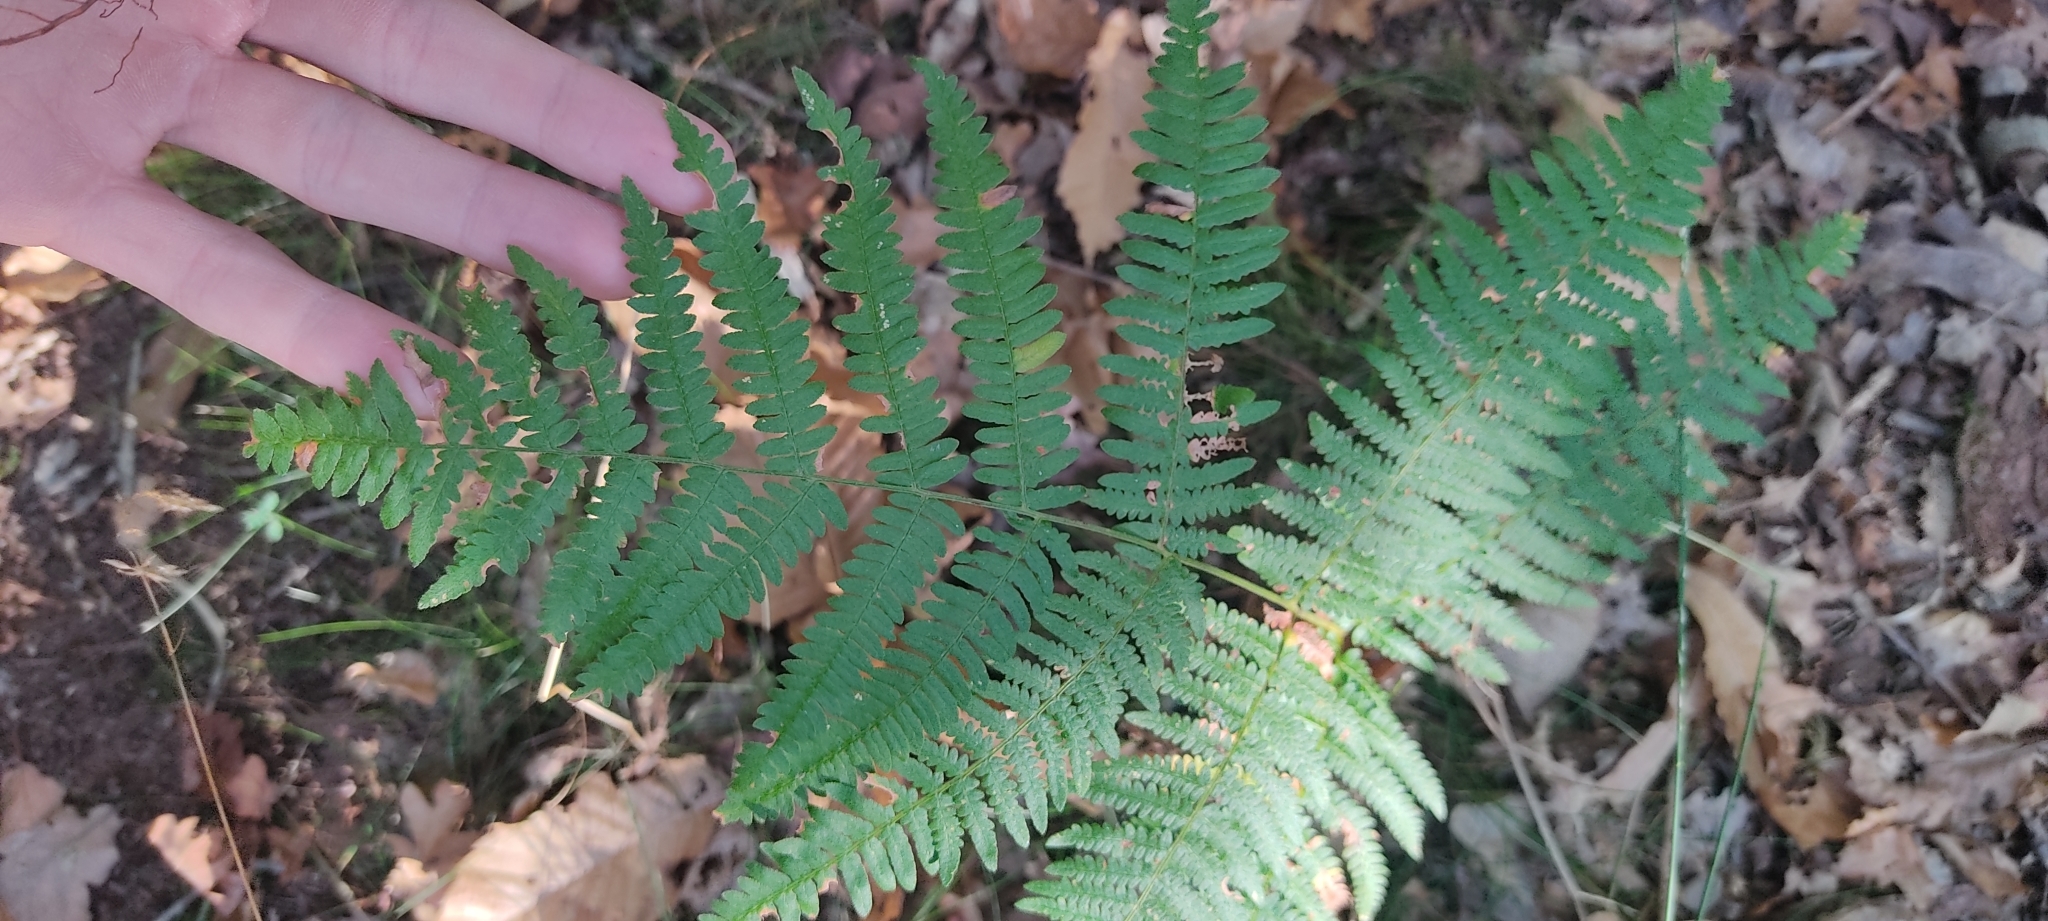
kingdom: Plantae
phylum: Tracheophyta
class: Polypodiopsida
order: Polypodiales
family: Dennstaedtiaceae
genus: Pteridium
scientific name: Pteridium aquilinum
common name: Bracken
